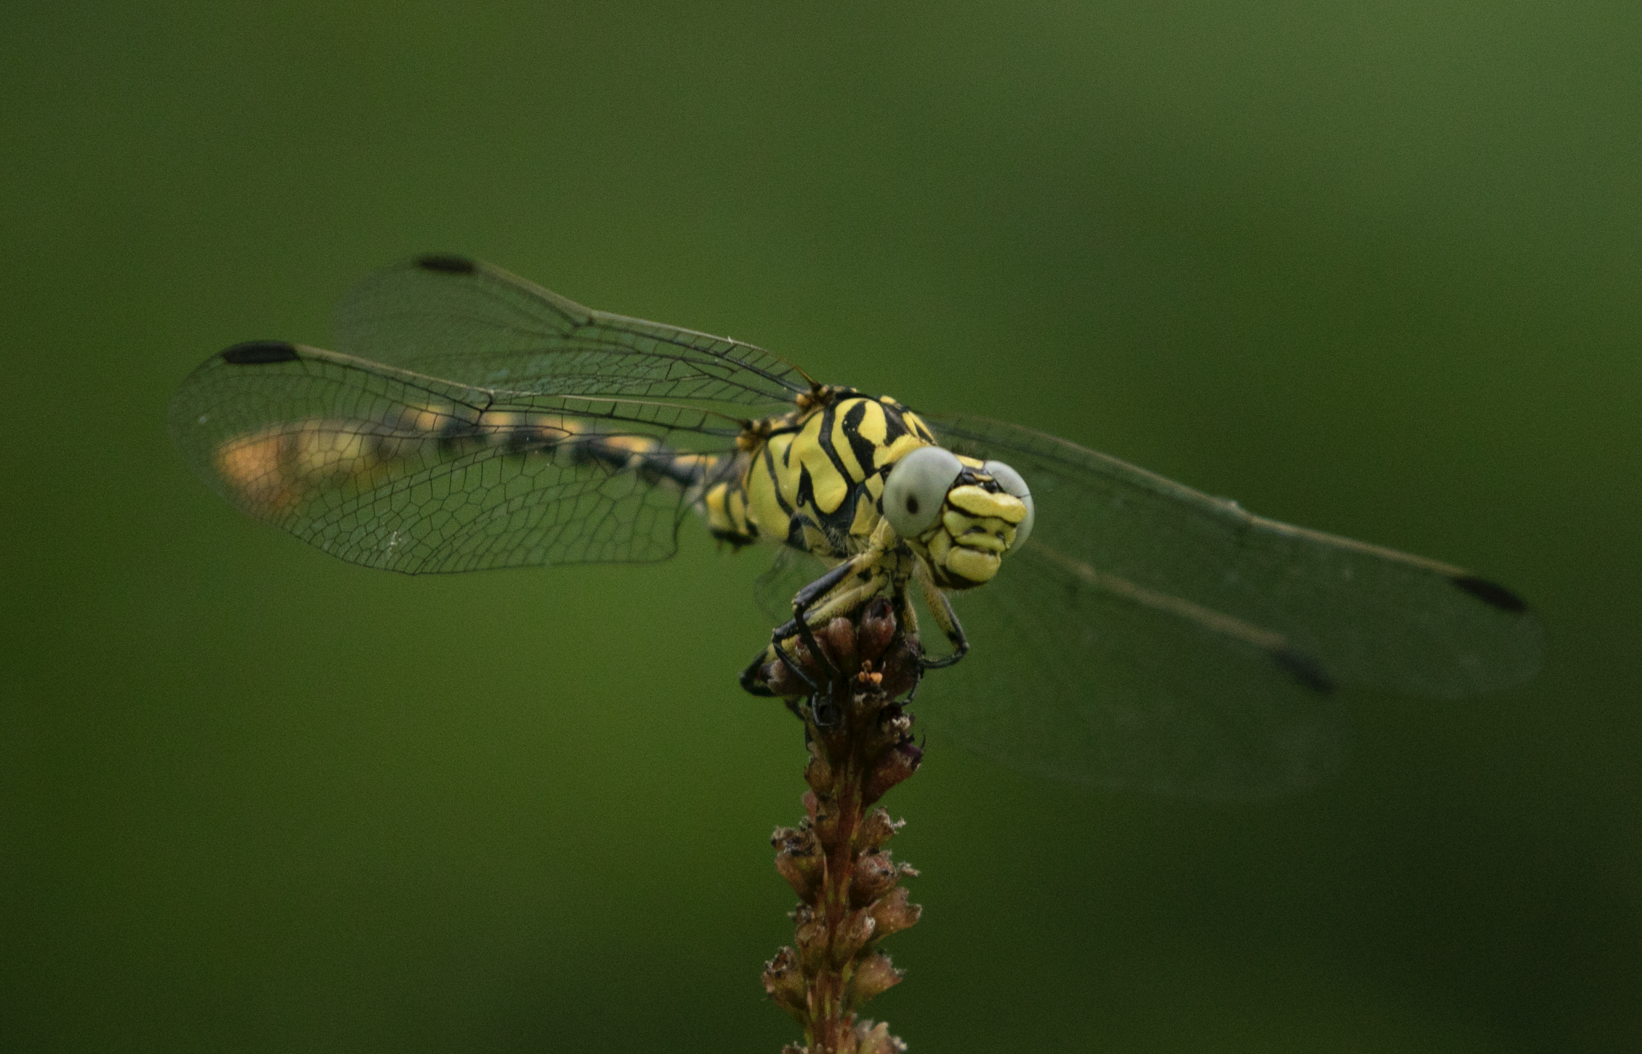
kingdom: Animalia
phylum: Arthropoda
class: Insecta
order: Odonata
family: Gomphidae
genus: Onychogomphus
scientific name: Onychogomphus forcipatus
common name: Small pincertail
